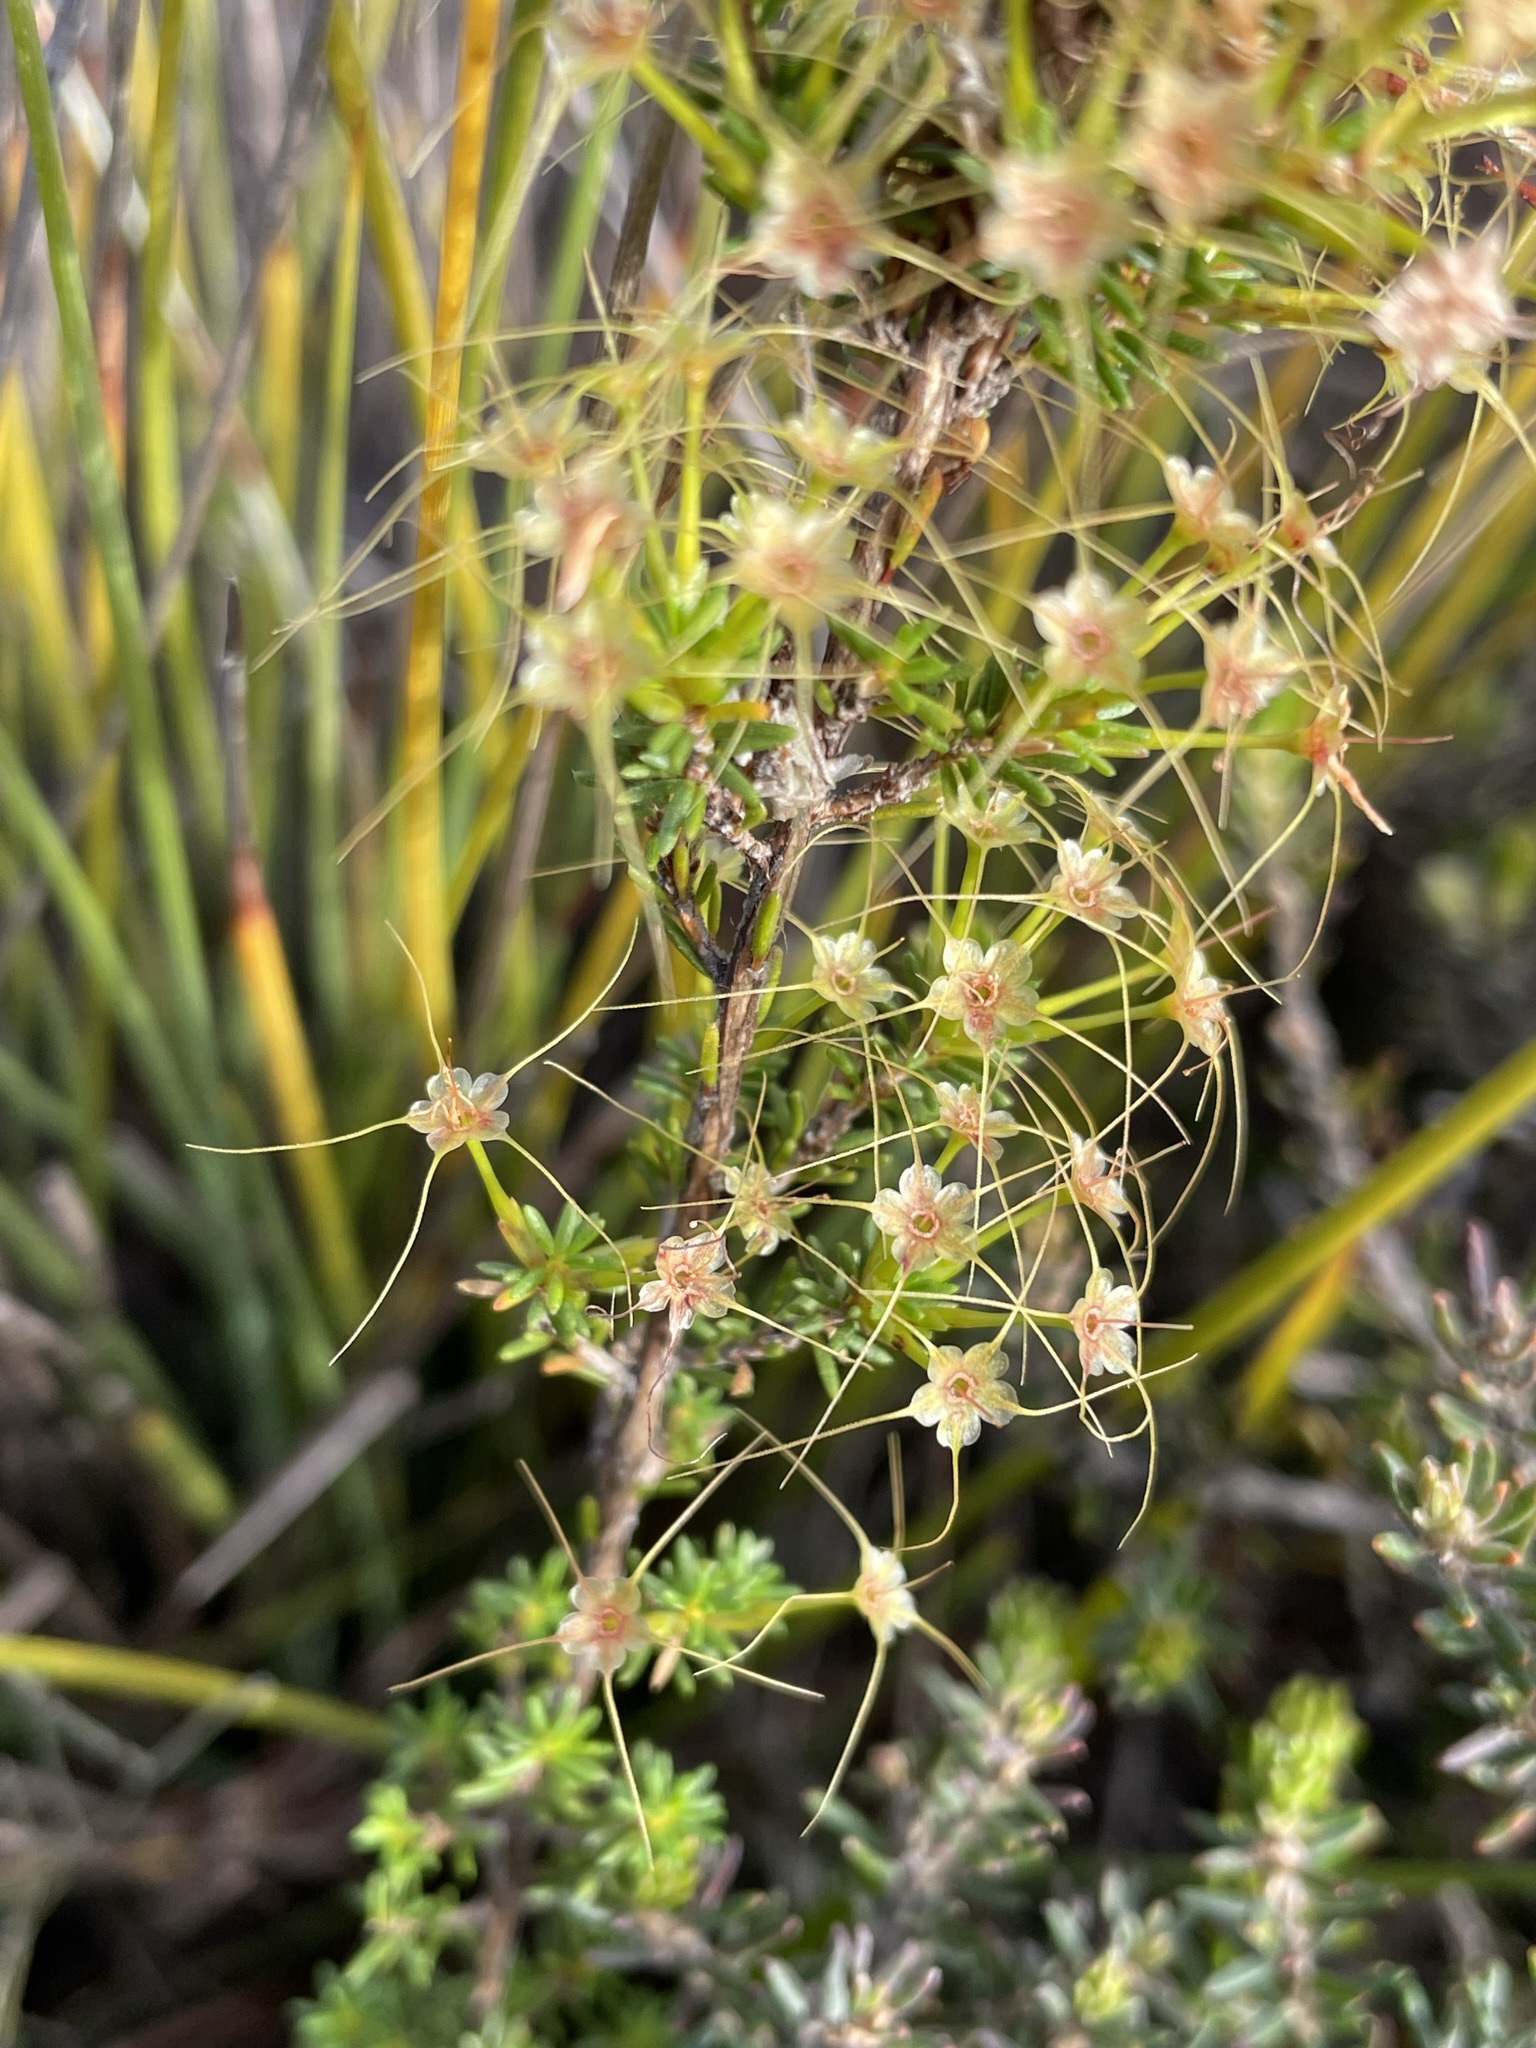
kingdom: Plantae
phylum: Tracheophyta
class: Magnoliopsida
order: Myrtales
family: Myrtaceae
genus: Calytrix
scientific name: Calytrix tetragona
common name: Common fringe myrtle
